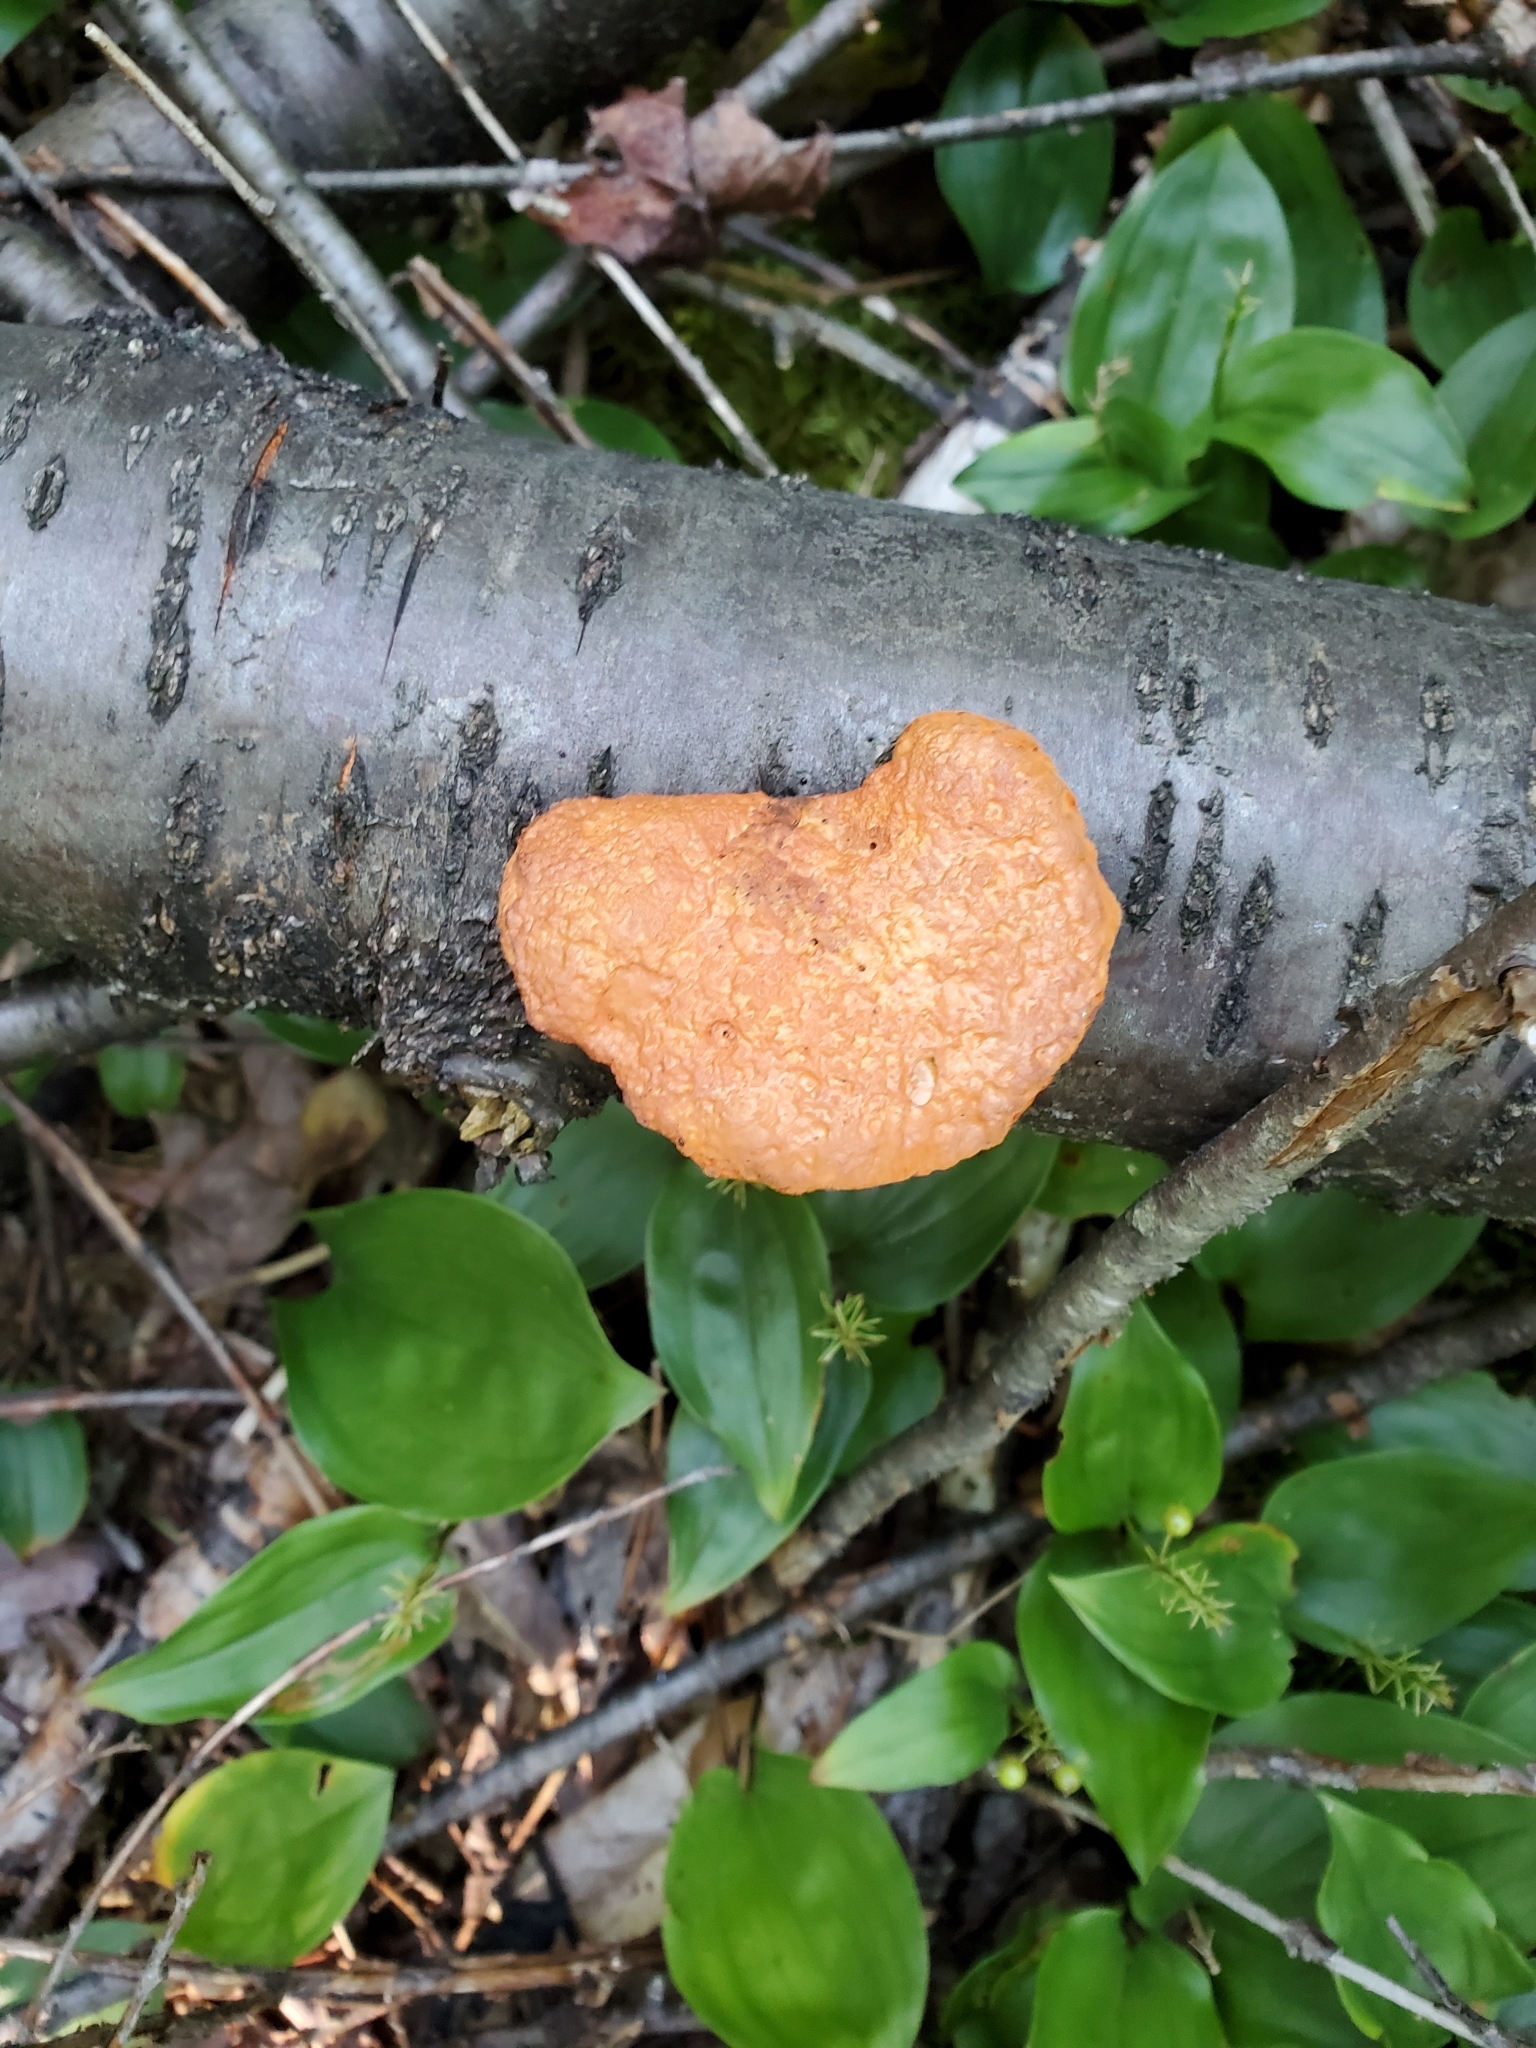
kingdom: Fungi
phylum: Basidiomycota
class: Agaricomycetes
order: Polyporales
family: Polyporaceae
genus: Trametes
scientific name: Trametes cinnabarina
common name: Northern cinnabar polypore
